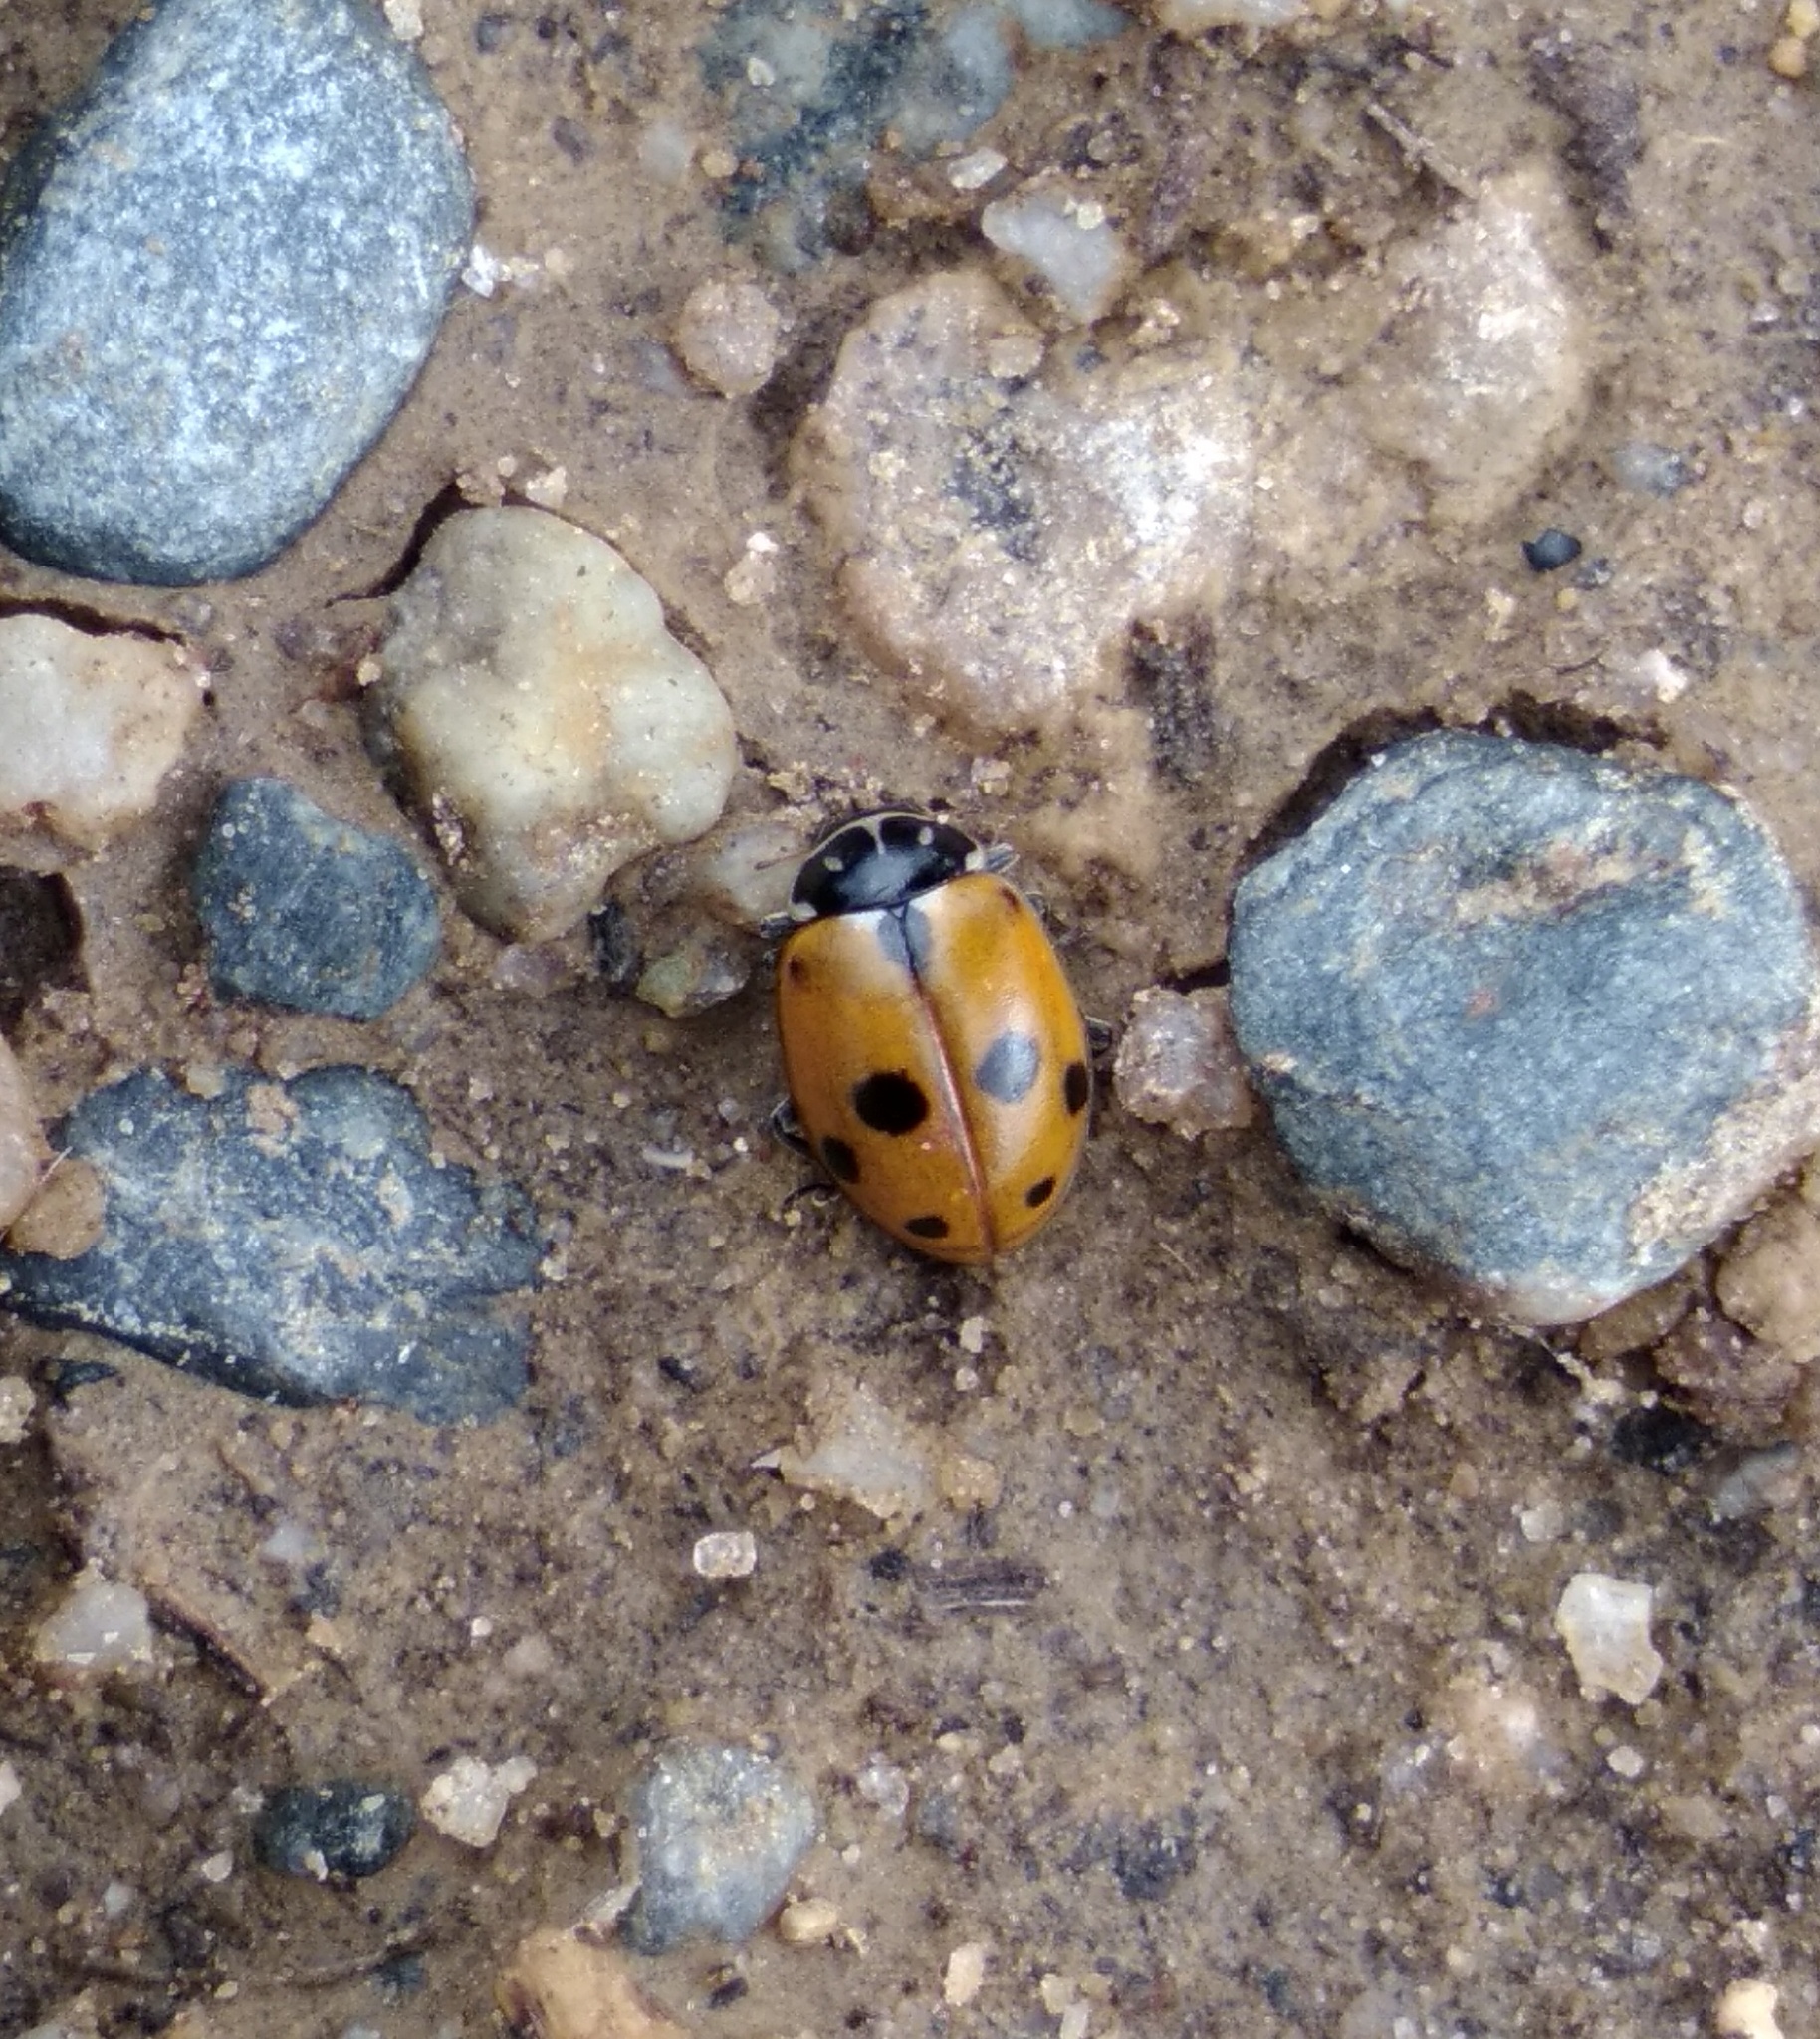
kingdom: Animalia
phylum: Arthropoda
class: Insecta
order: Coleoptera
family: Coccinellidae
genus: Hippodamia
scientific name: Hippodamia variegata
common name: Ladybird beetle
